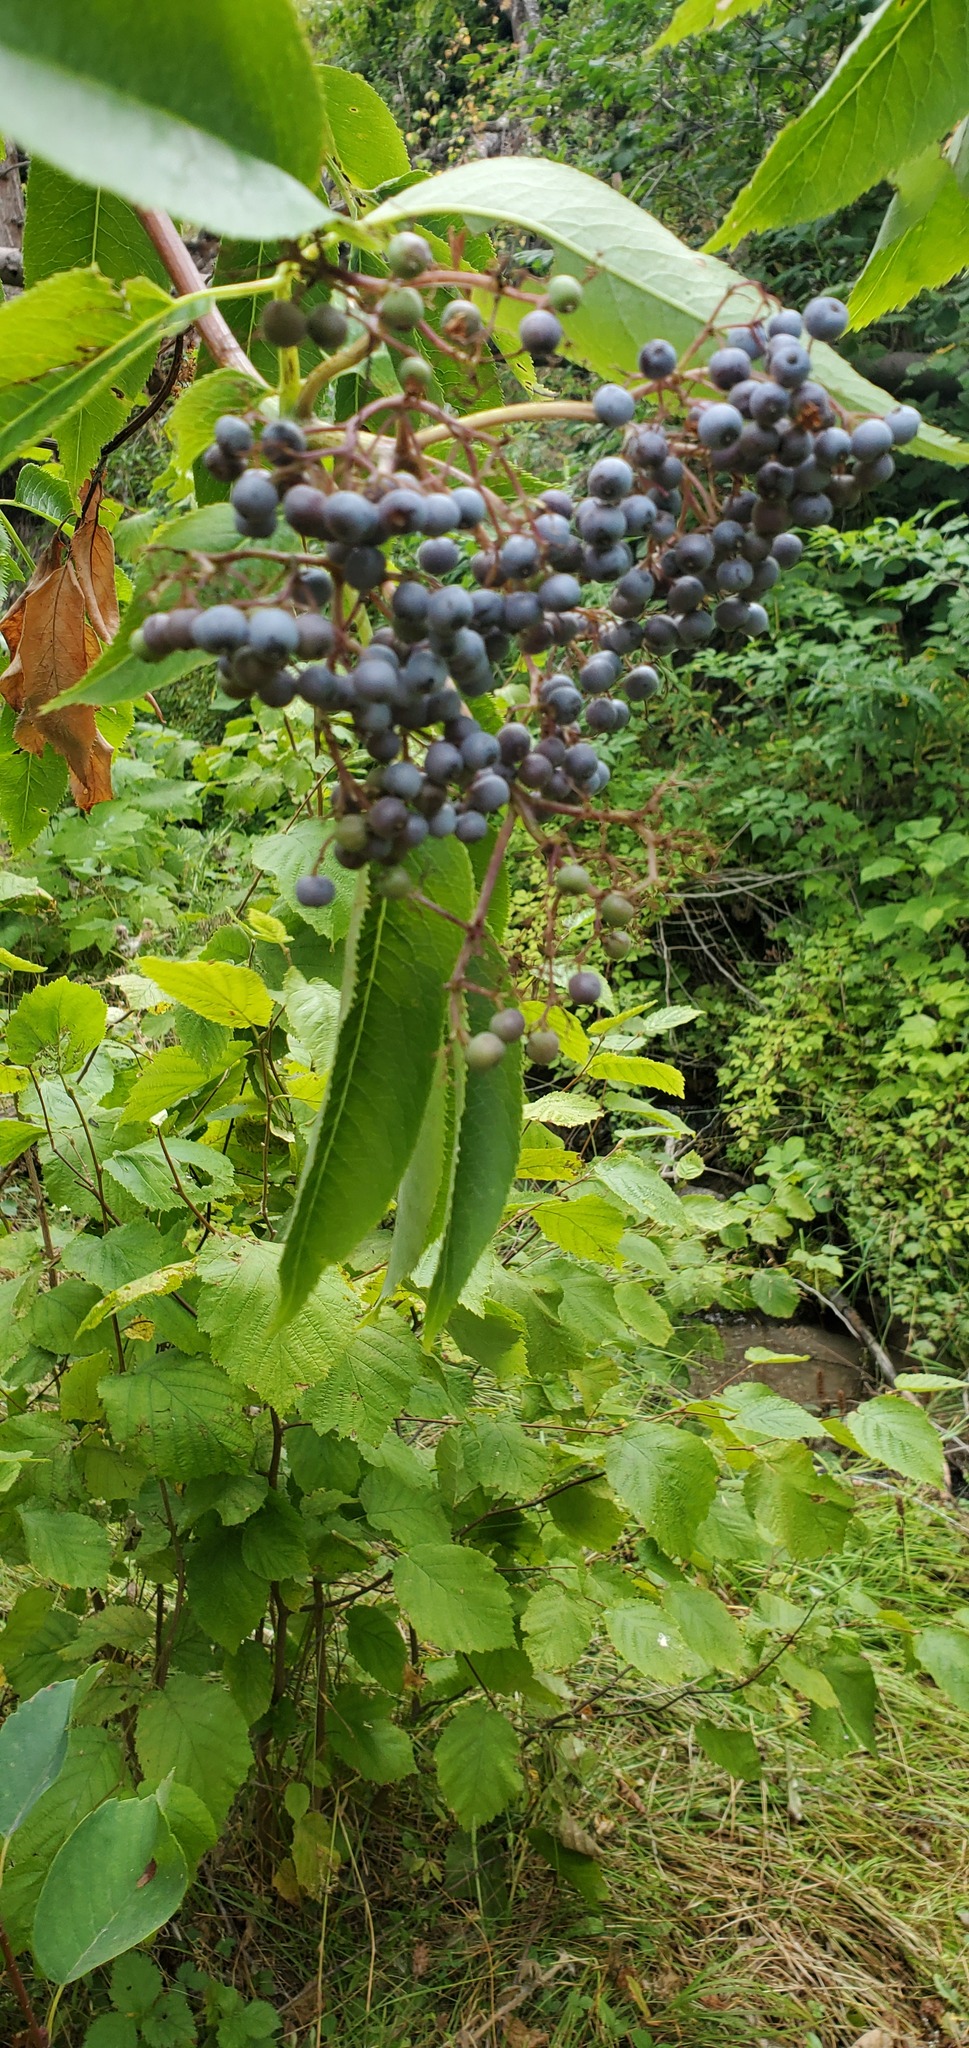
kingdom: Plantae
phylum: Tracheophyta
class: Magnoliopsida
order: Dipsacales
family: Viburnaceae
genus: Sambucus
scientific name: Sambucus cerulea
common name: Blue elder
